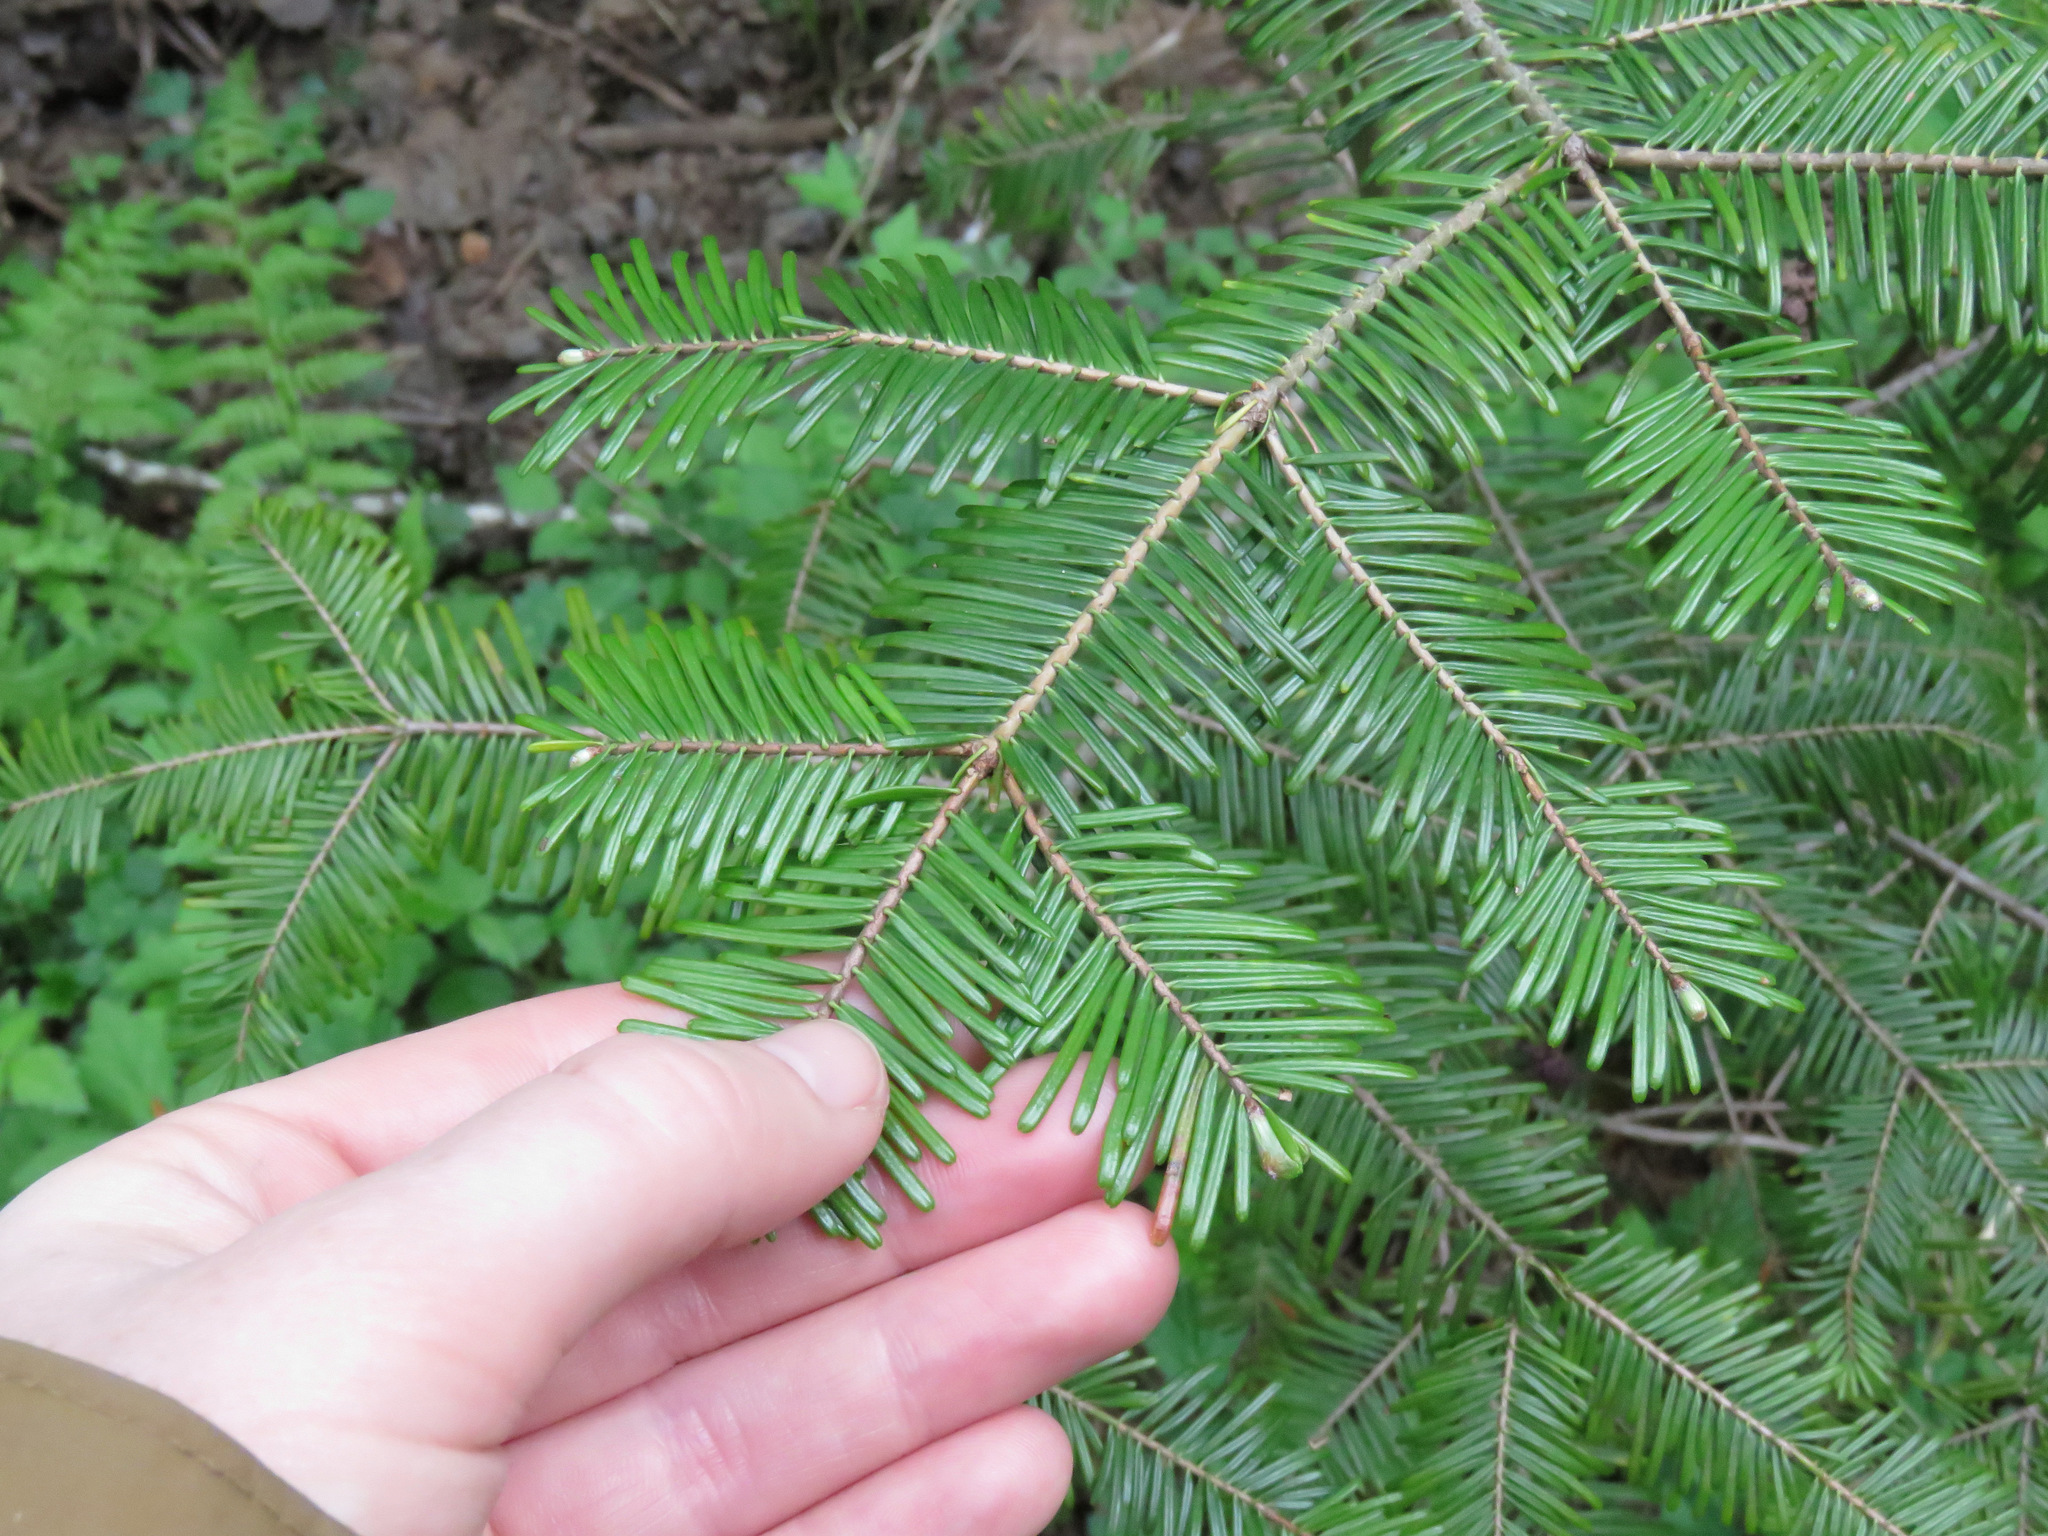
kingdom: Plantae
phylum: Tracheophyta
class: Pinopsida
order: Pinales
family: Pinaceae
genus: Abies
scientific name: Abies grandis
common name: Giant fir
